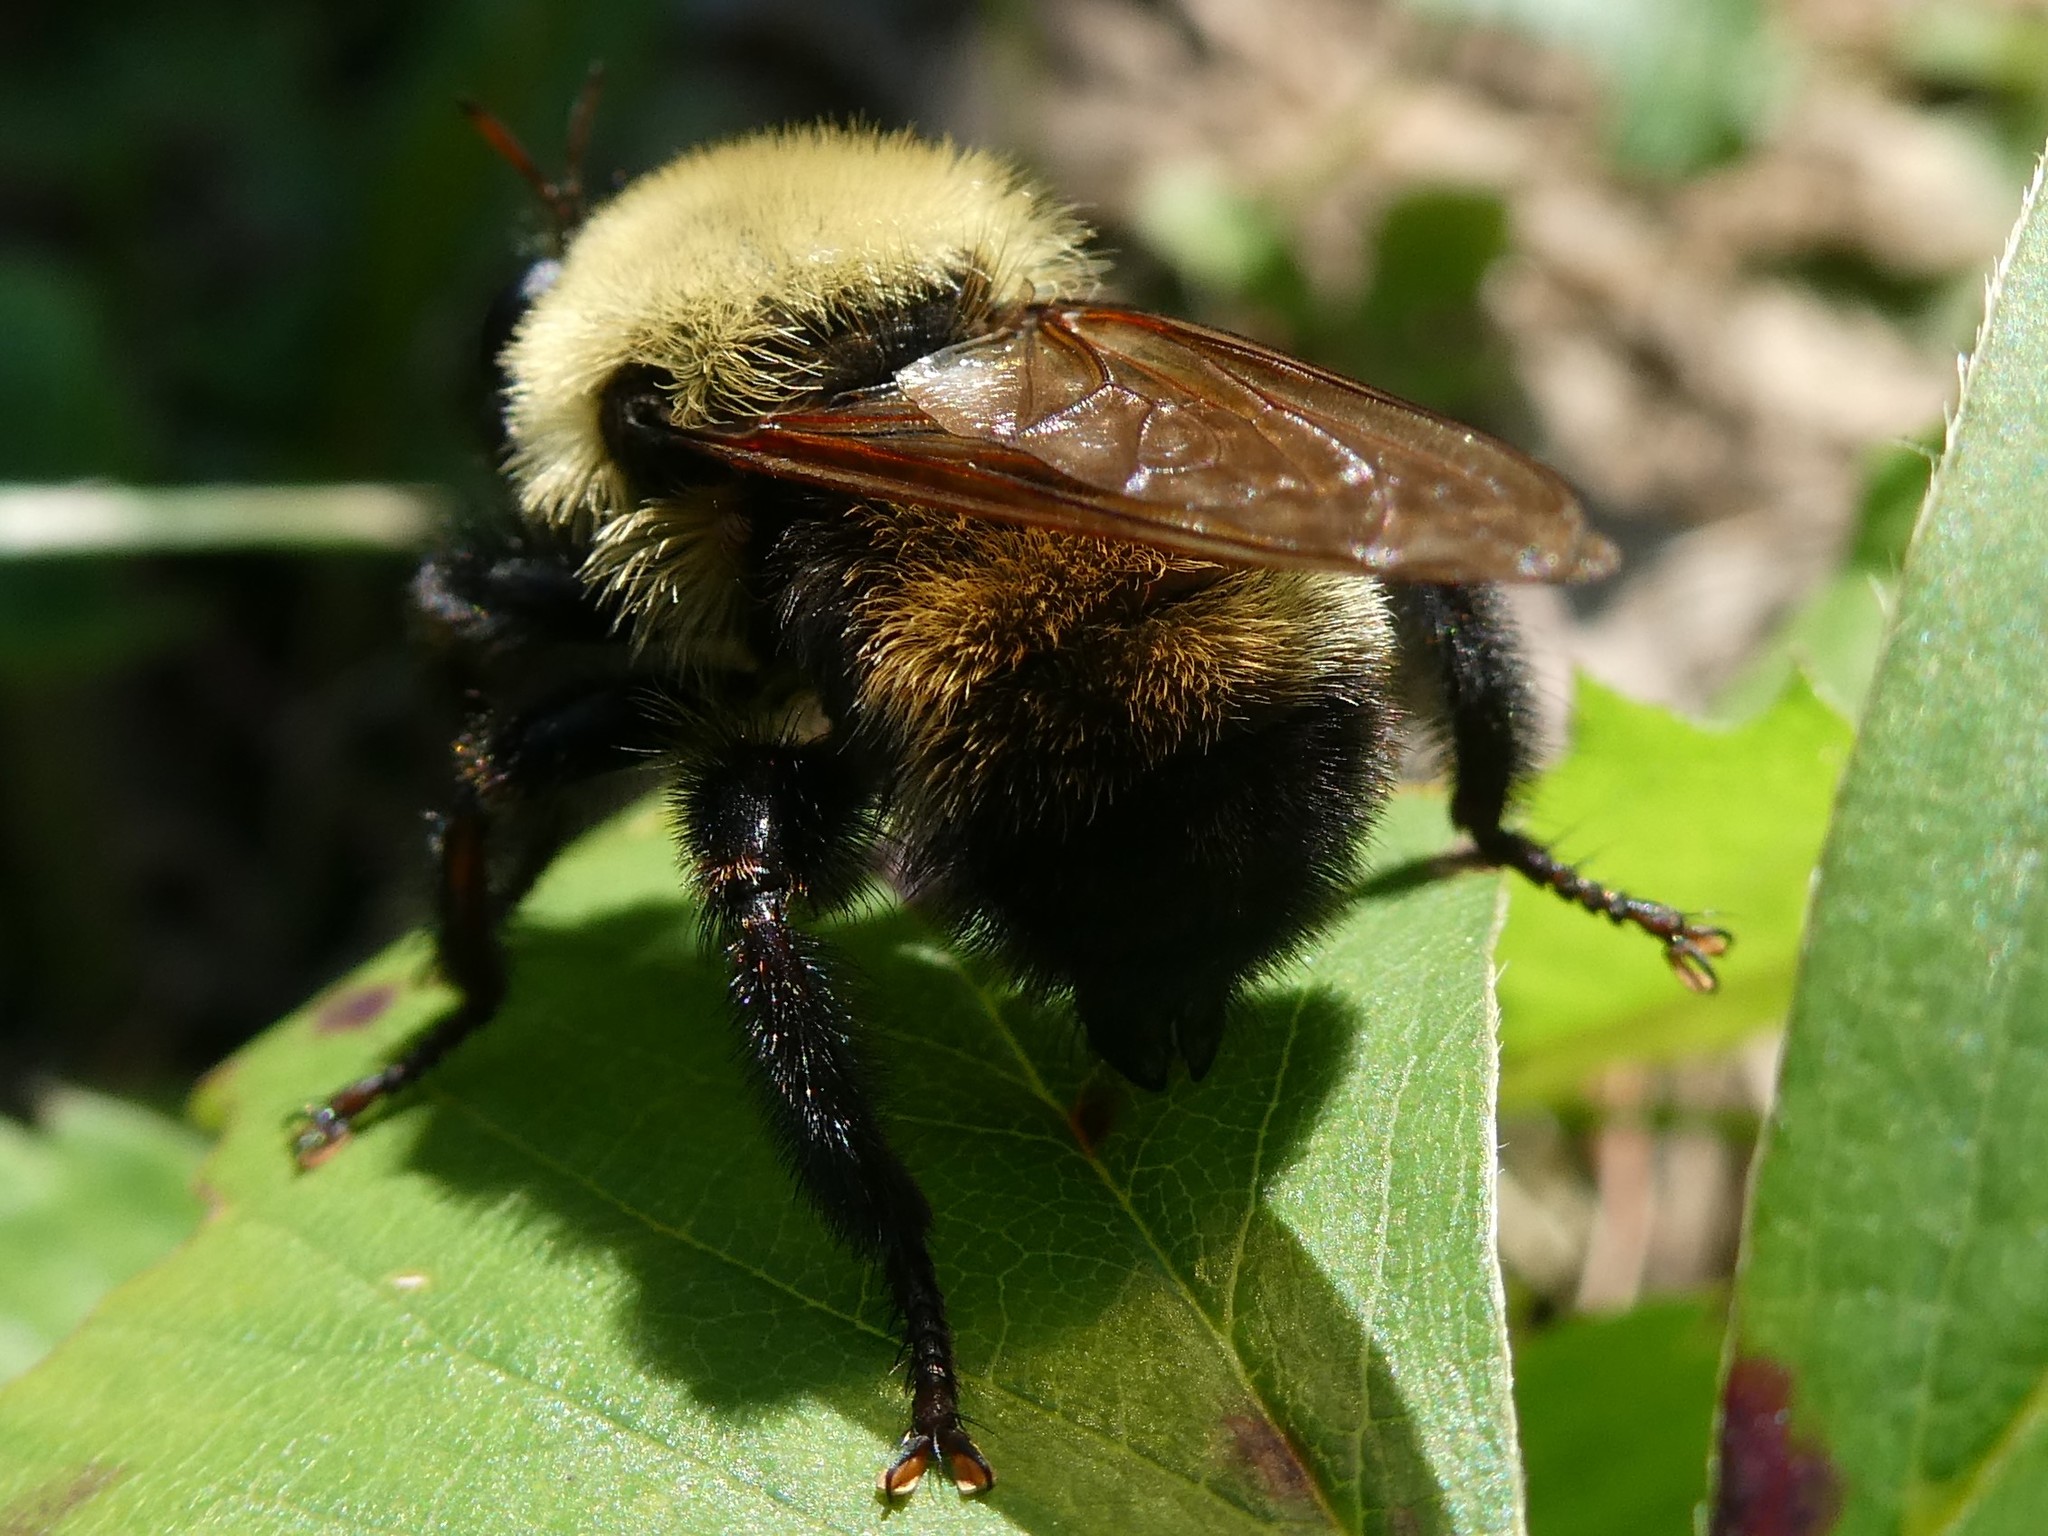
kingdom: Animalia
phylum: Arthropoda
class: Insecta
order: Diptera
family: Asilidae
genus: Laphria
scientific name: Laphria thoracica
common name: Bumble bee mimic robber fly
